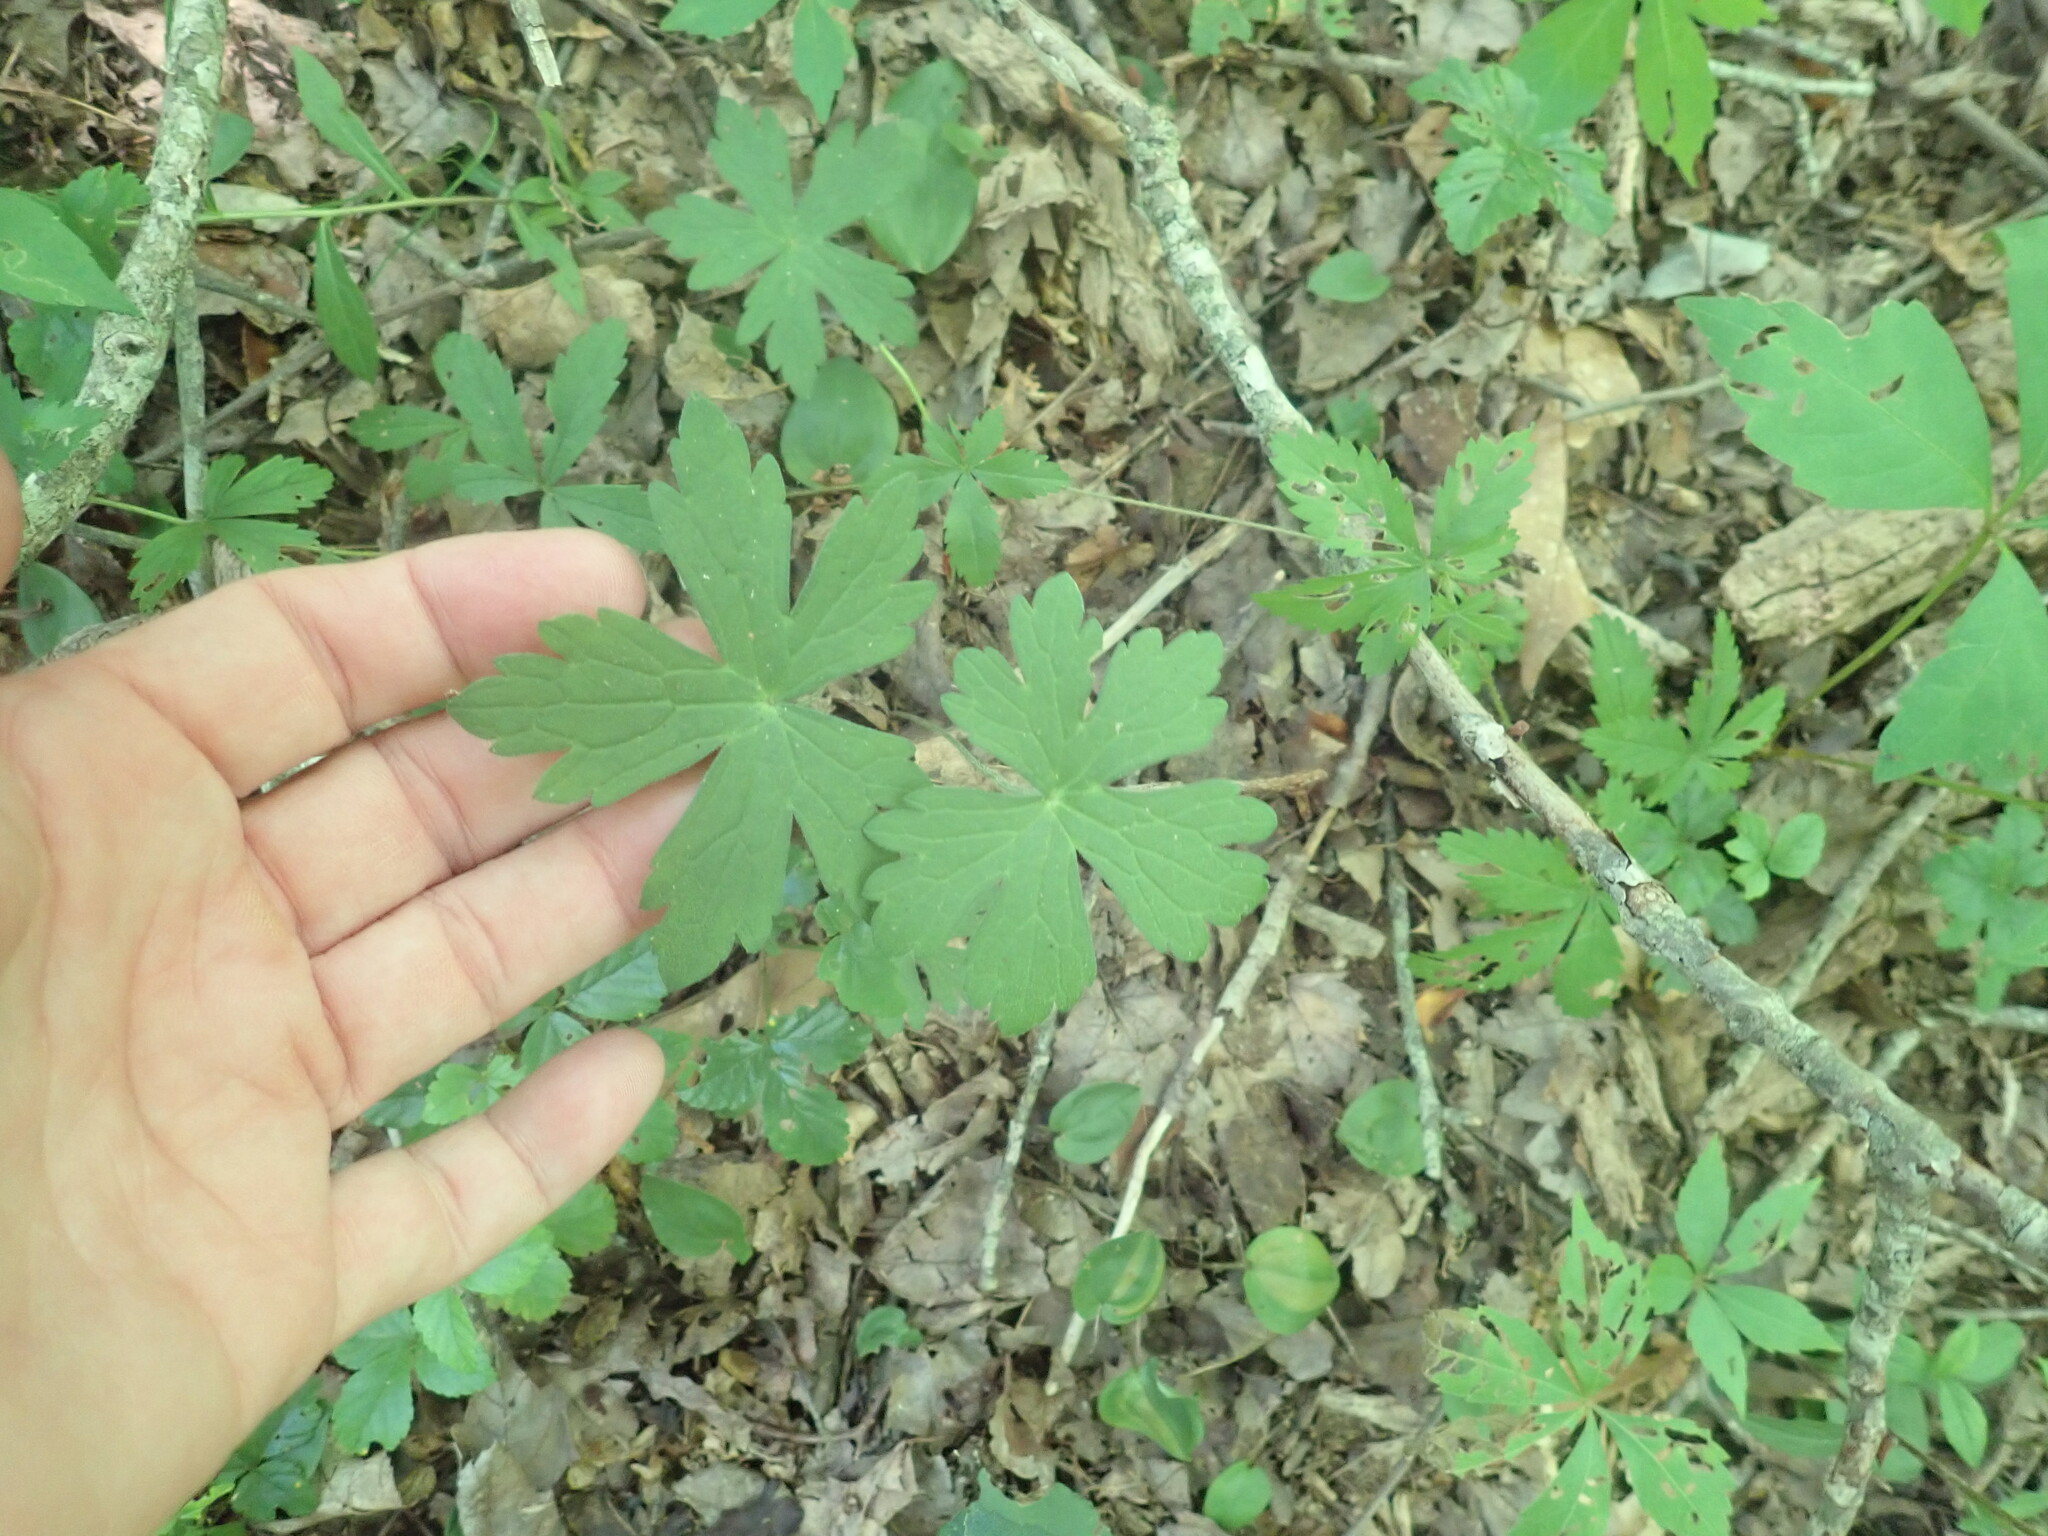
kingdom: Plantae
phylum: Tracheophyta
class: Magnoliopsida
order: Geraniales
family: Geraniaceae
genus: Geranium
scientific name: Geranium maculatum
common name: Spotted geranium
